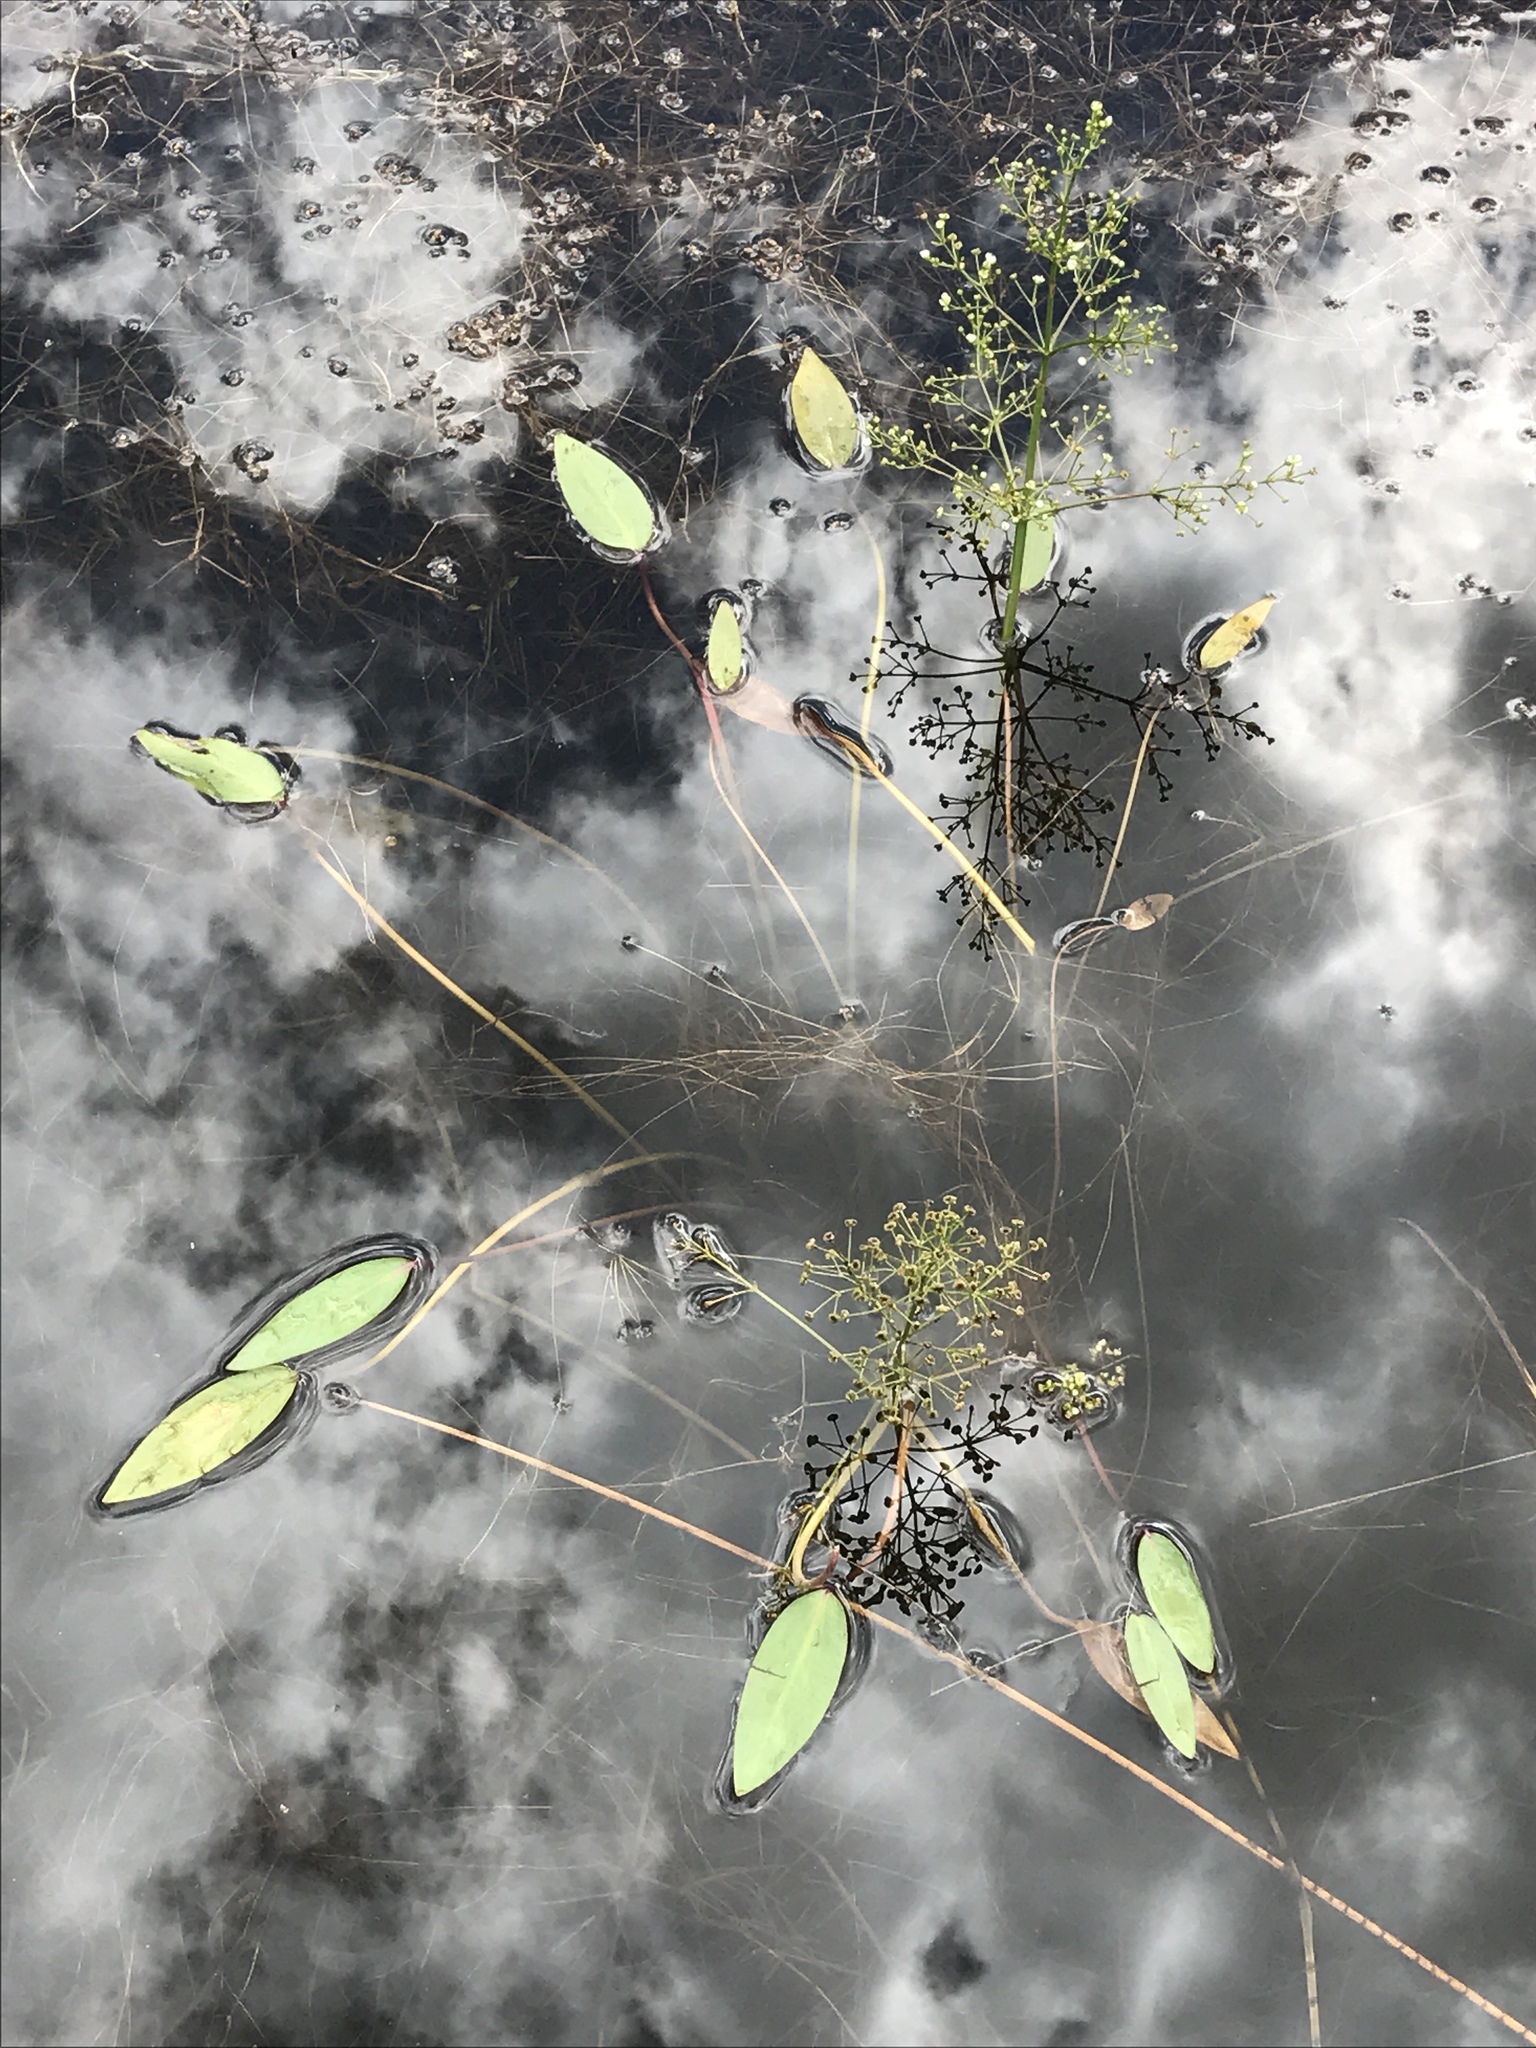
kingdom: Plantae
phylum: Tracheophyta
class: Liliopsida
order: Alismatales
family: Alismataceae
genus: Alisma
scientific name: Alisma triviale
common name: Northern water-plantain
